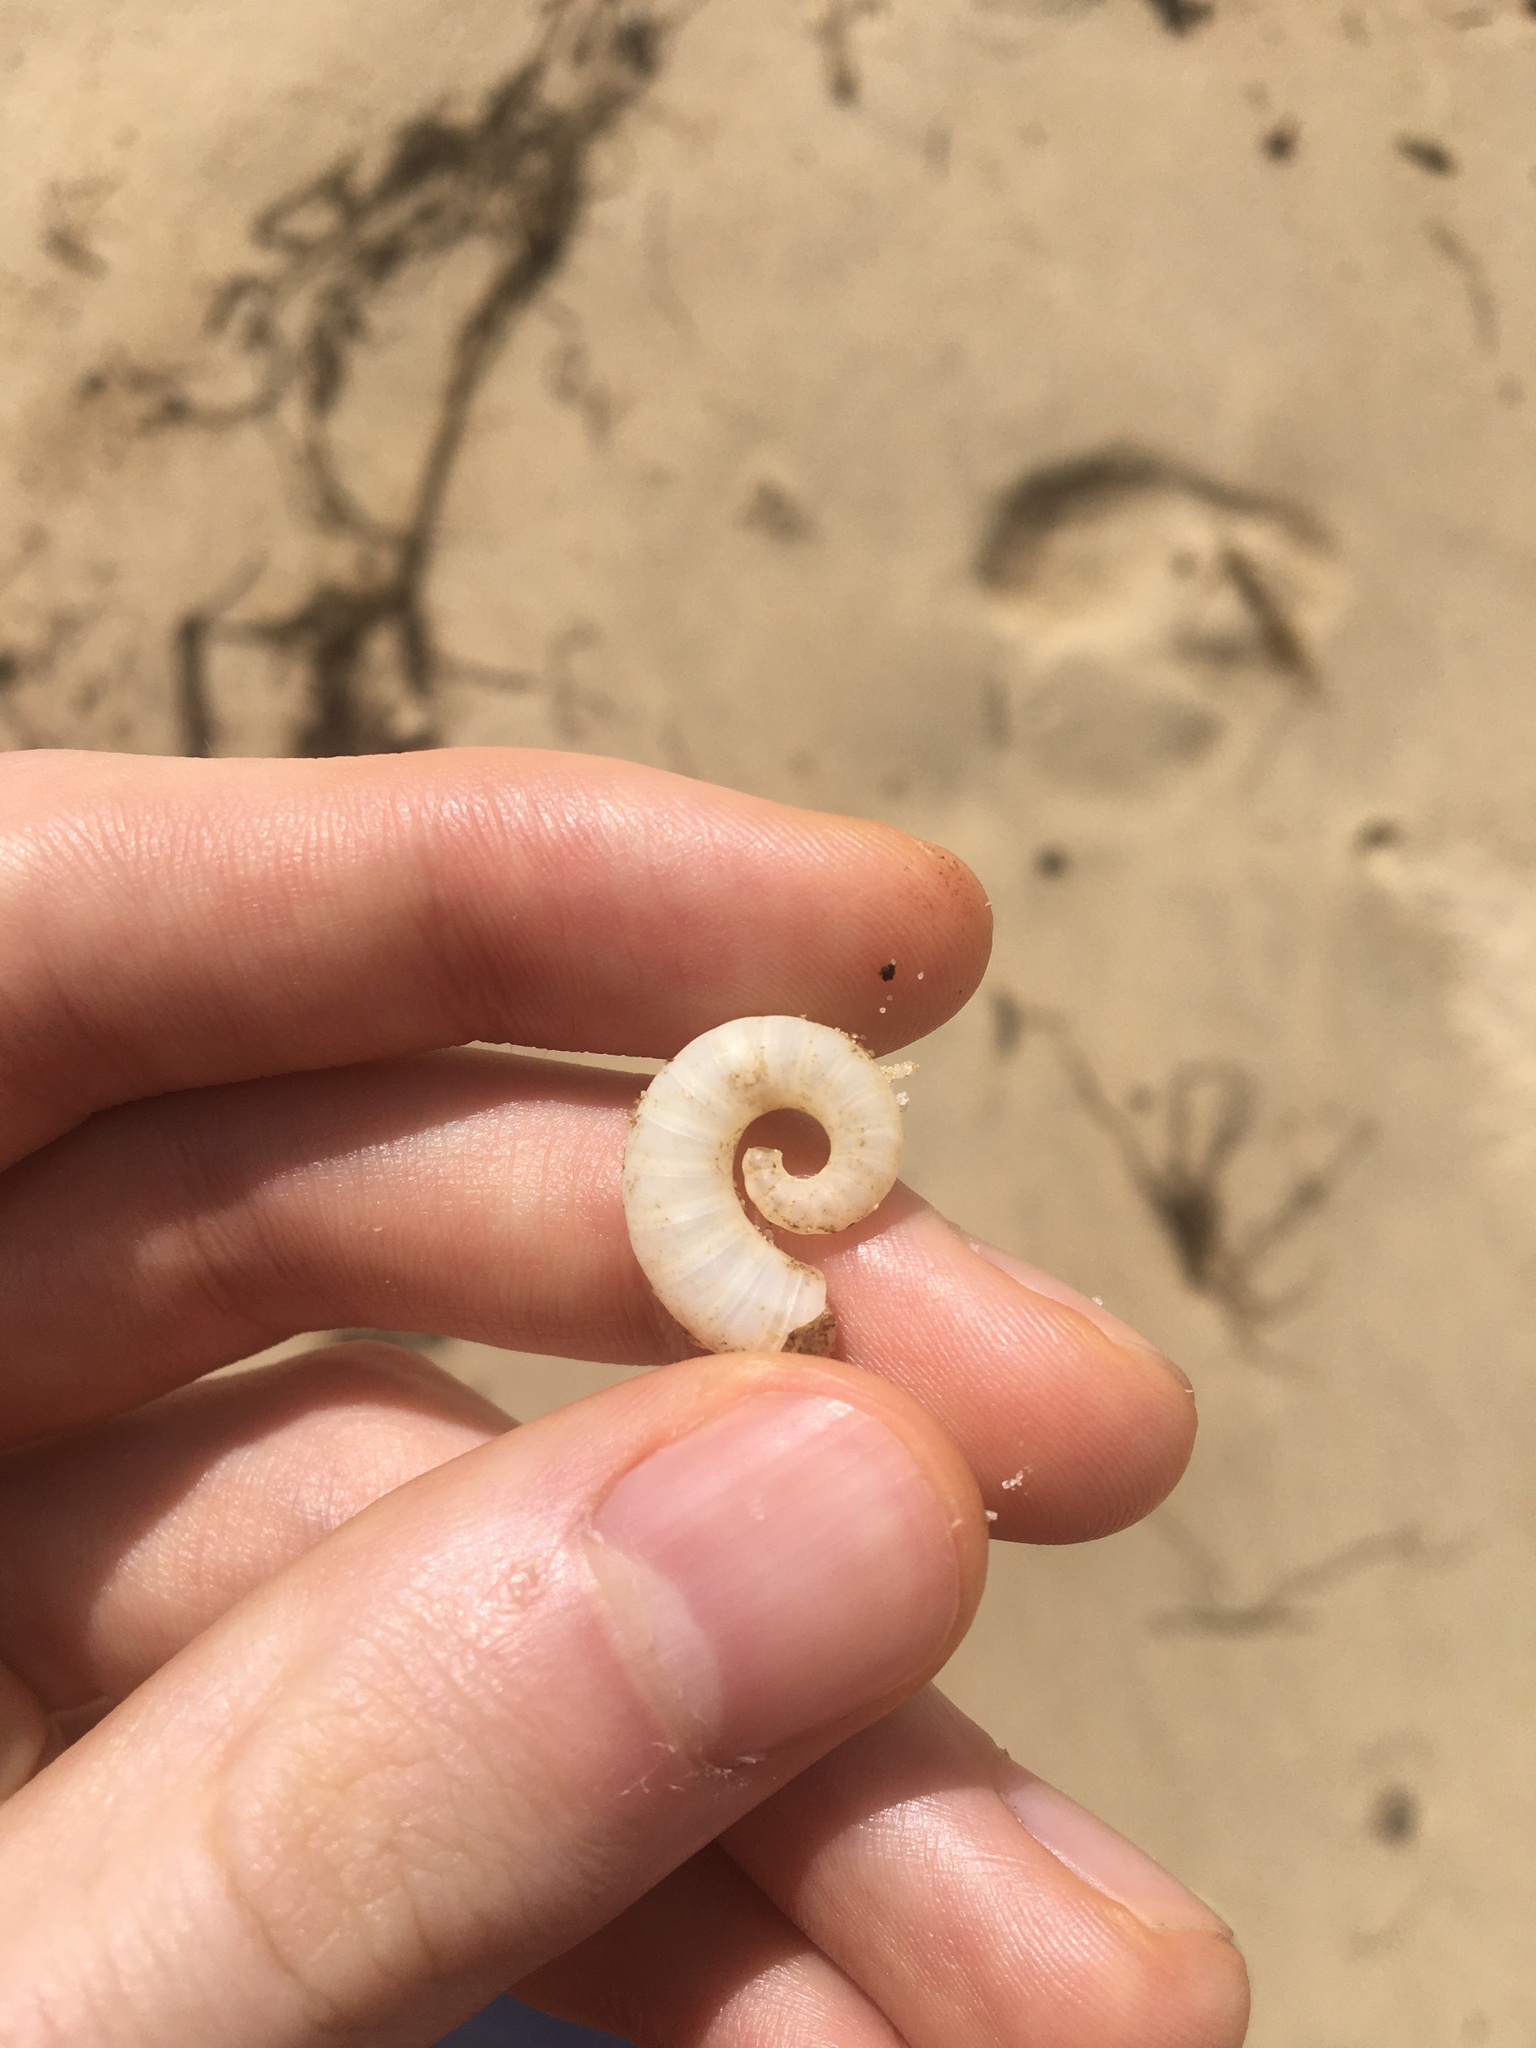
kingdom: Animalia
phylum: Mollusca
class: Cephalopoda
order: Spirulida
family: Spirulidae
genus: Spirula
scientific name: Spirula spirula
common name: Ram's horn squid
